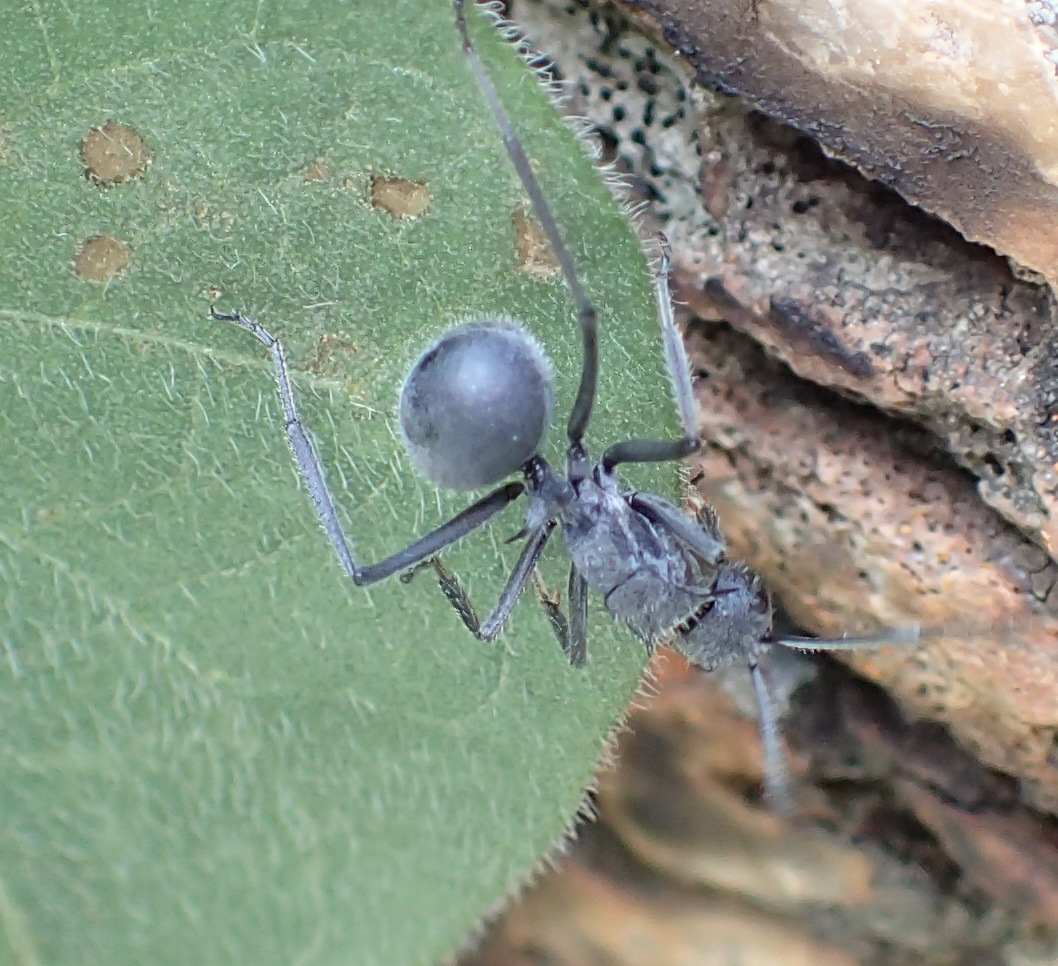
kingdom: Animalia
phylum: Arthropoda
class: Insecta
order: Hymenoptera
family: Formicidae
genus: Polyrhachis
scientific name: Polyrhachis schistacea
